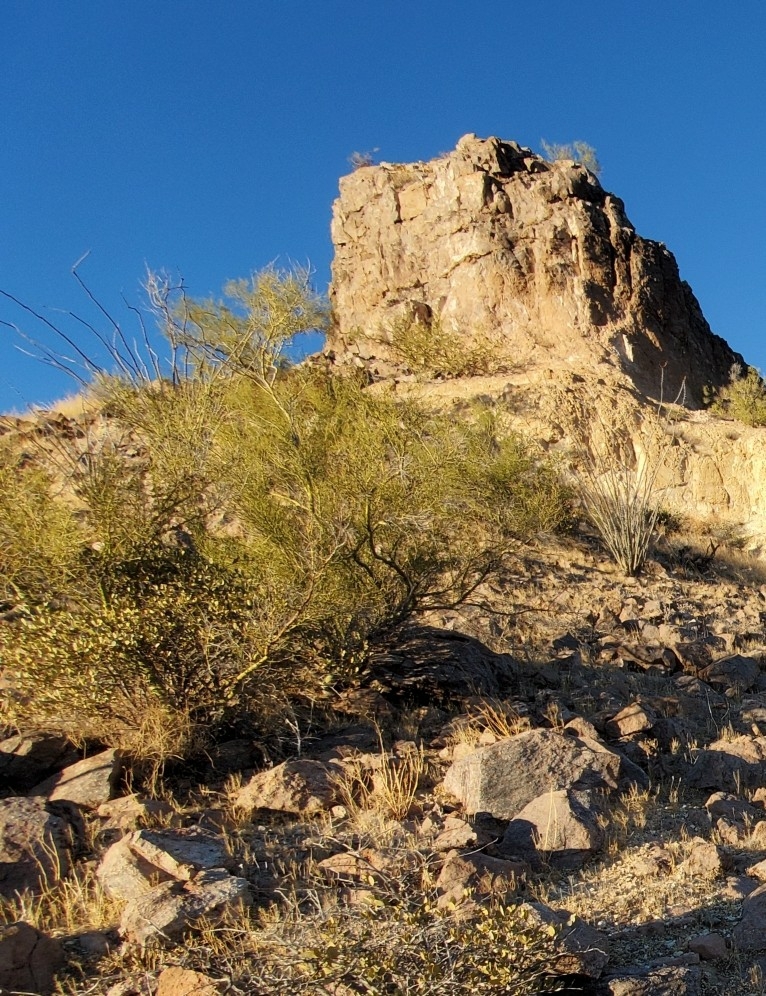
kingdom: Plantae
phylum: Tracheophyta
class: Magnoliopsida
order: Fabales
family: Fabaceae
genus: Parkinsonia
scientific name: Parkinsonia microphylla
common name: Yellow paloverde
